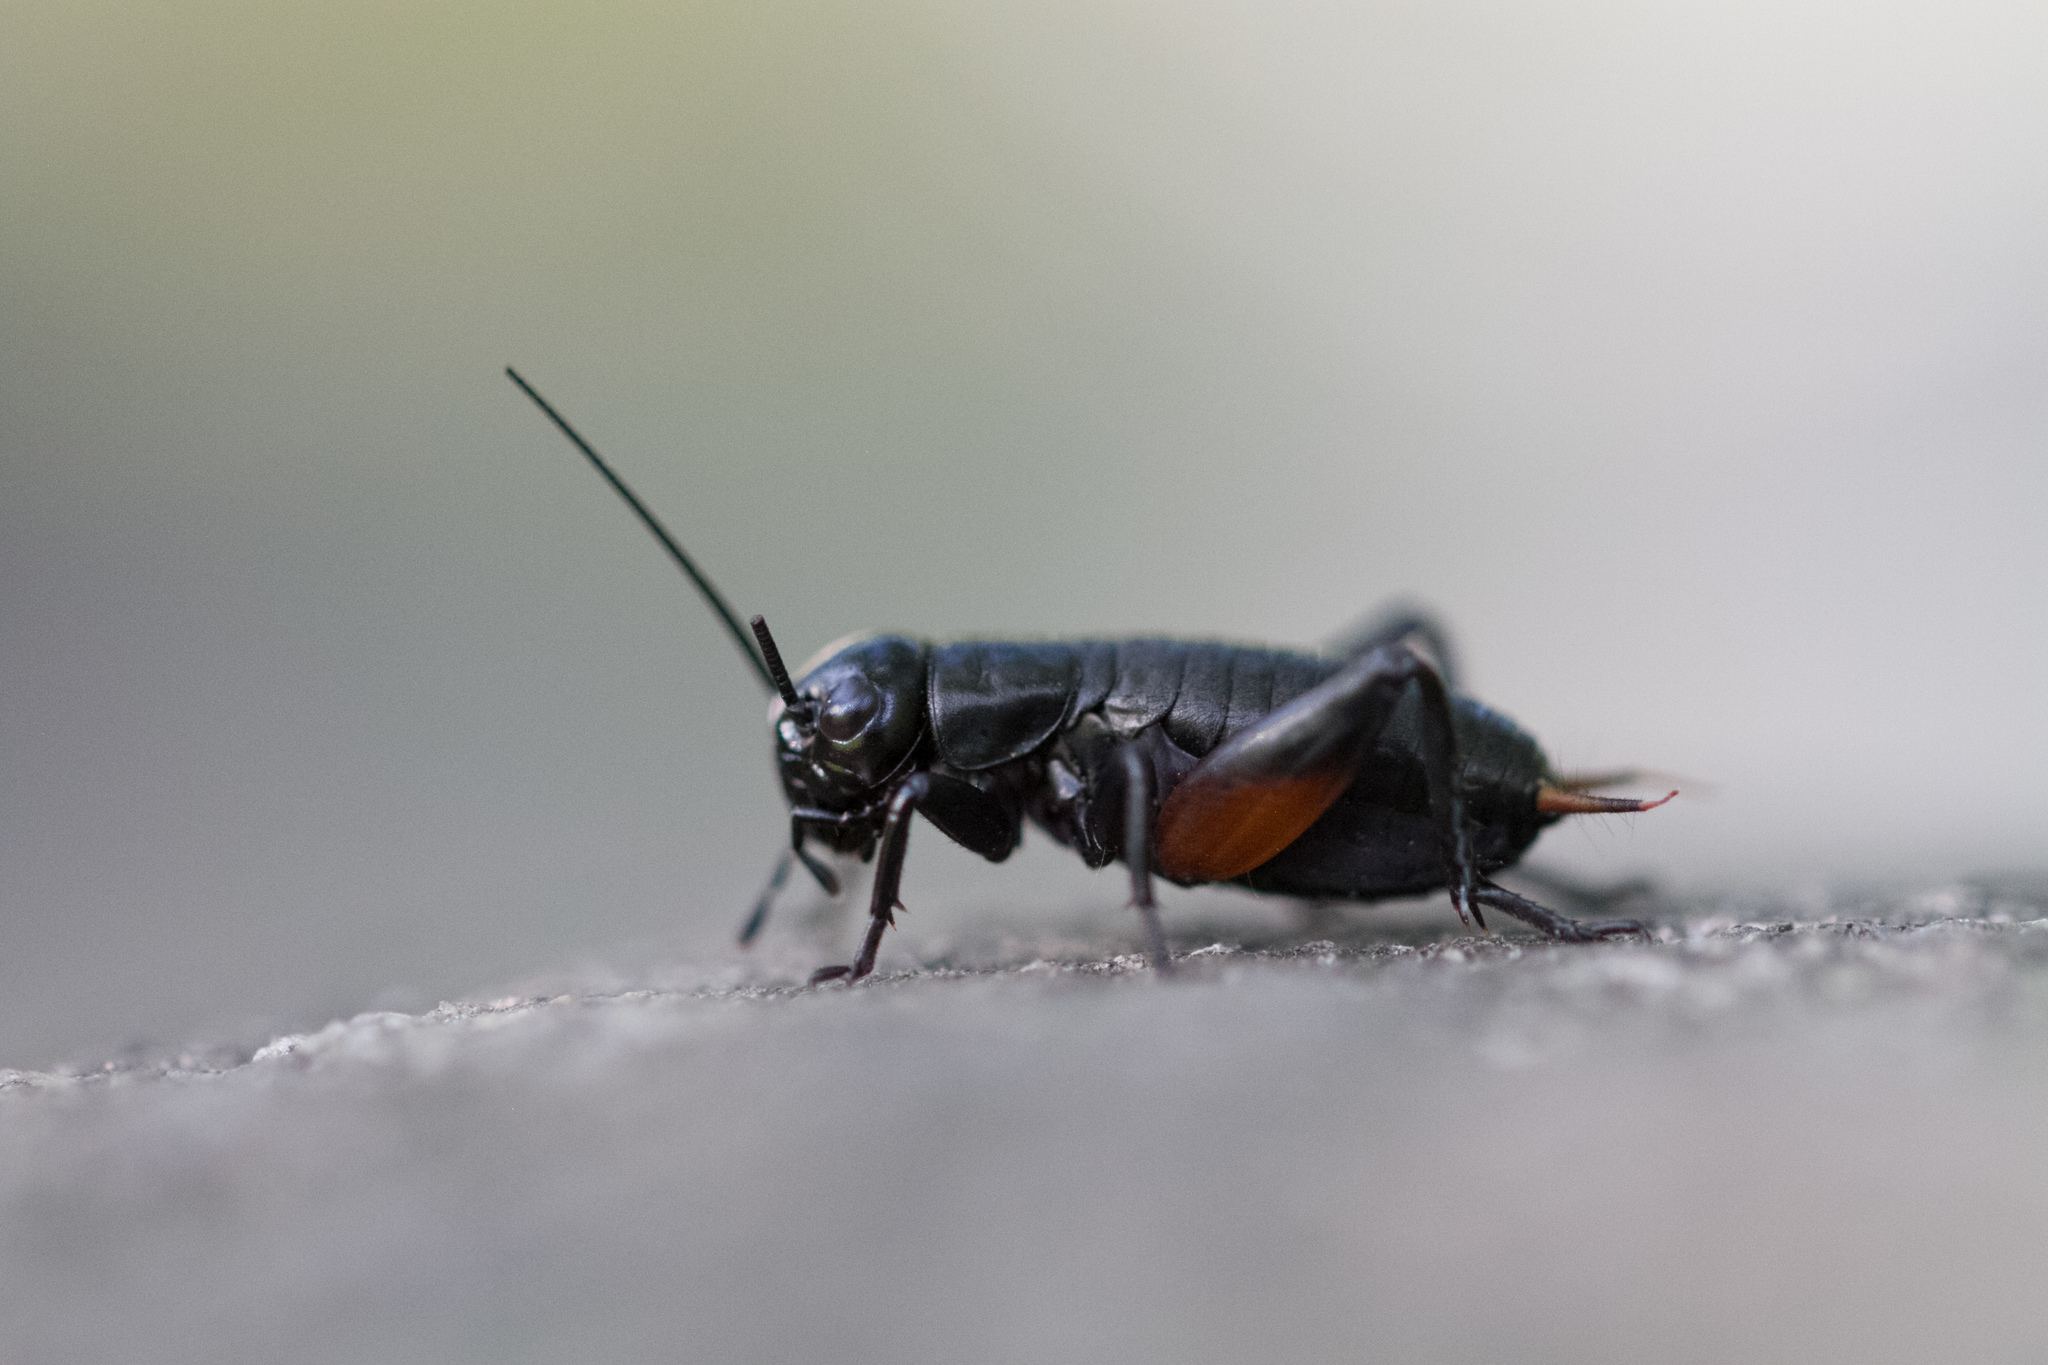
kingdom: Animalia
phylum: Arthropoda
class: Insecta
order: Orthoptera
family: Gryllidae
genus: Gryllus
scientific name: Gryllus campestris
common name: Field cricket
